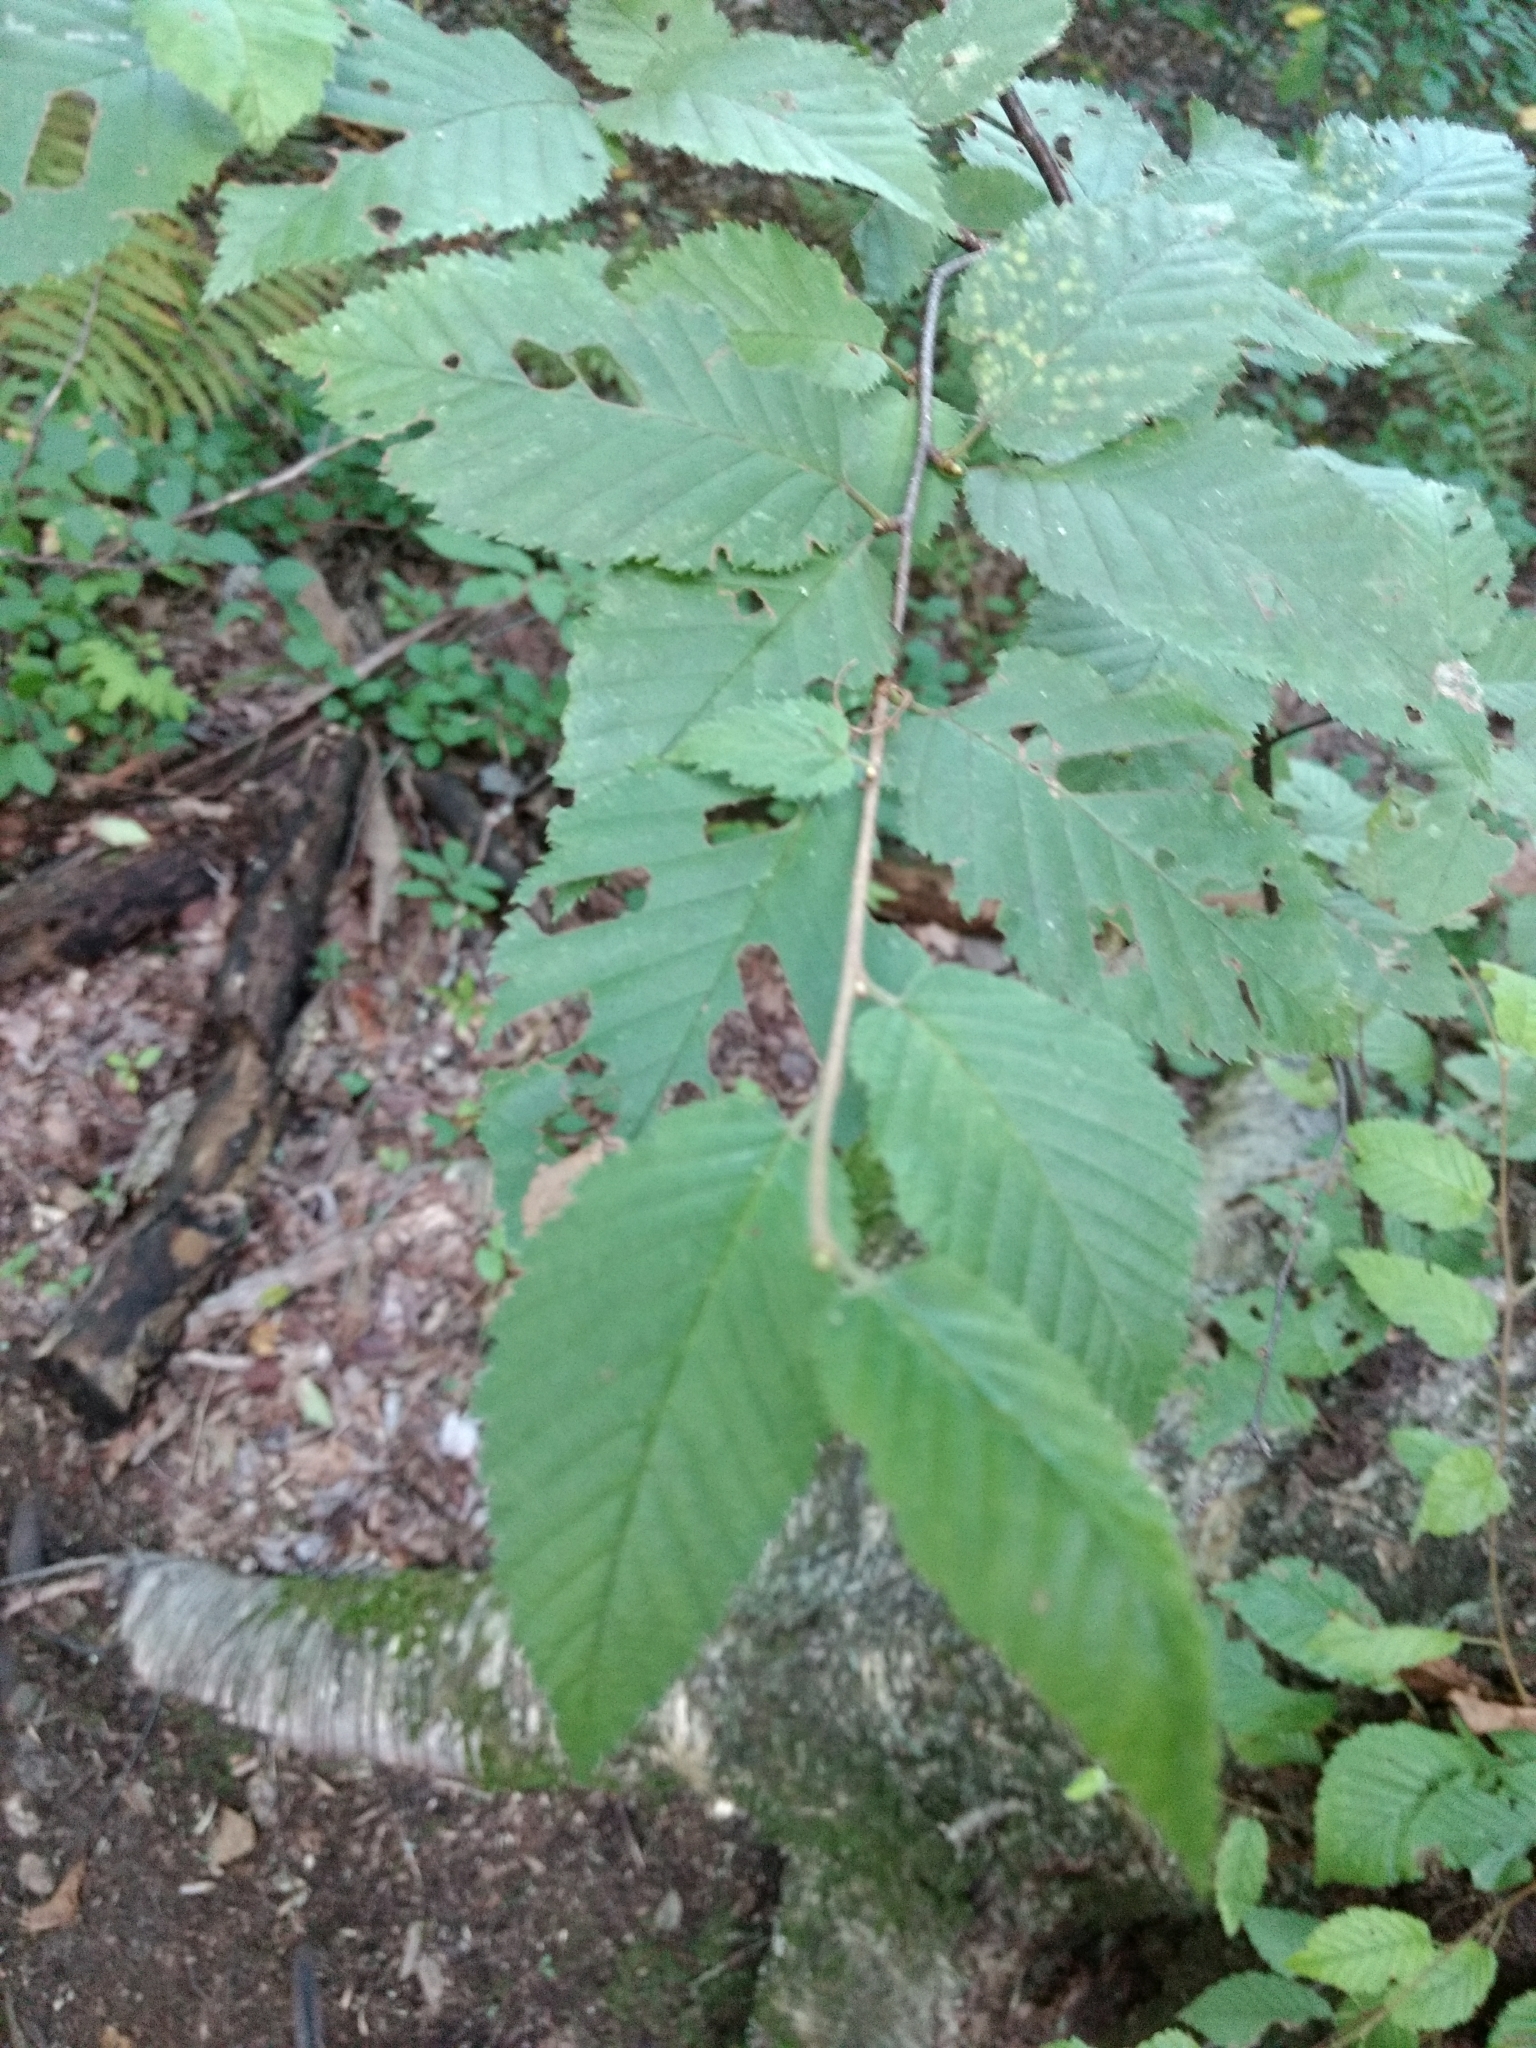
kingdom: Plantae
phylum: Tracheophyta
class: Magnoliopsida
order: Fagales
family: Betulaceae
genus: Betula
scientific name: Betula alleghaniensis
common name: Yellow birch
